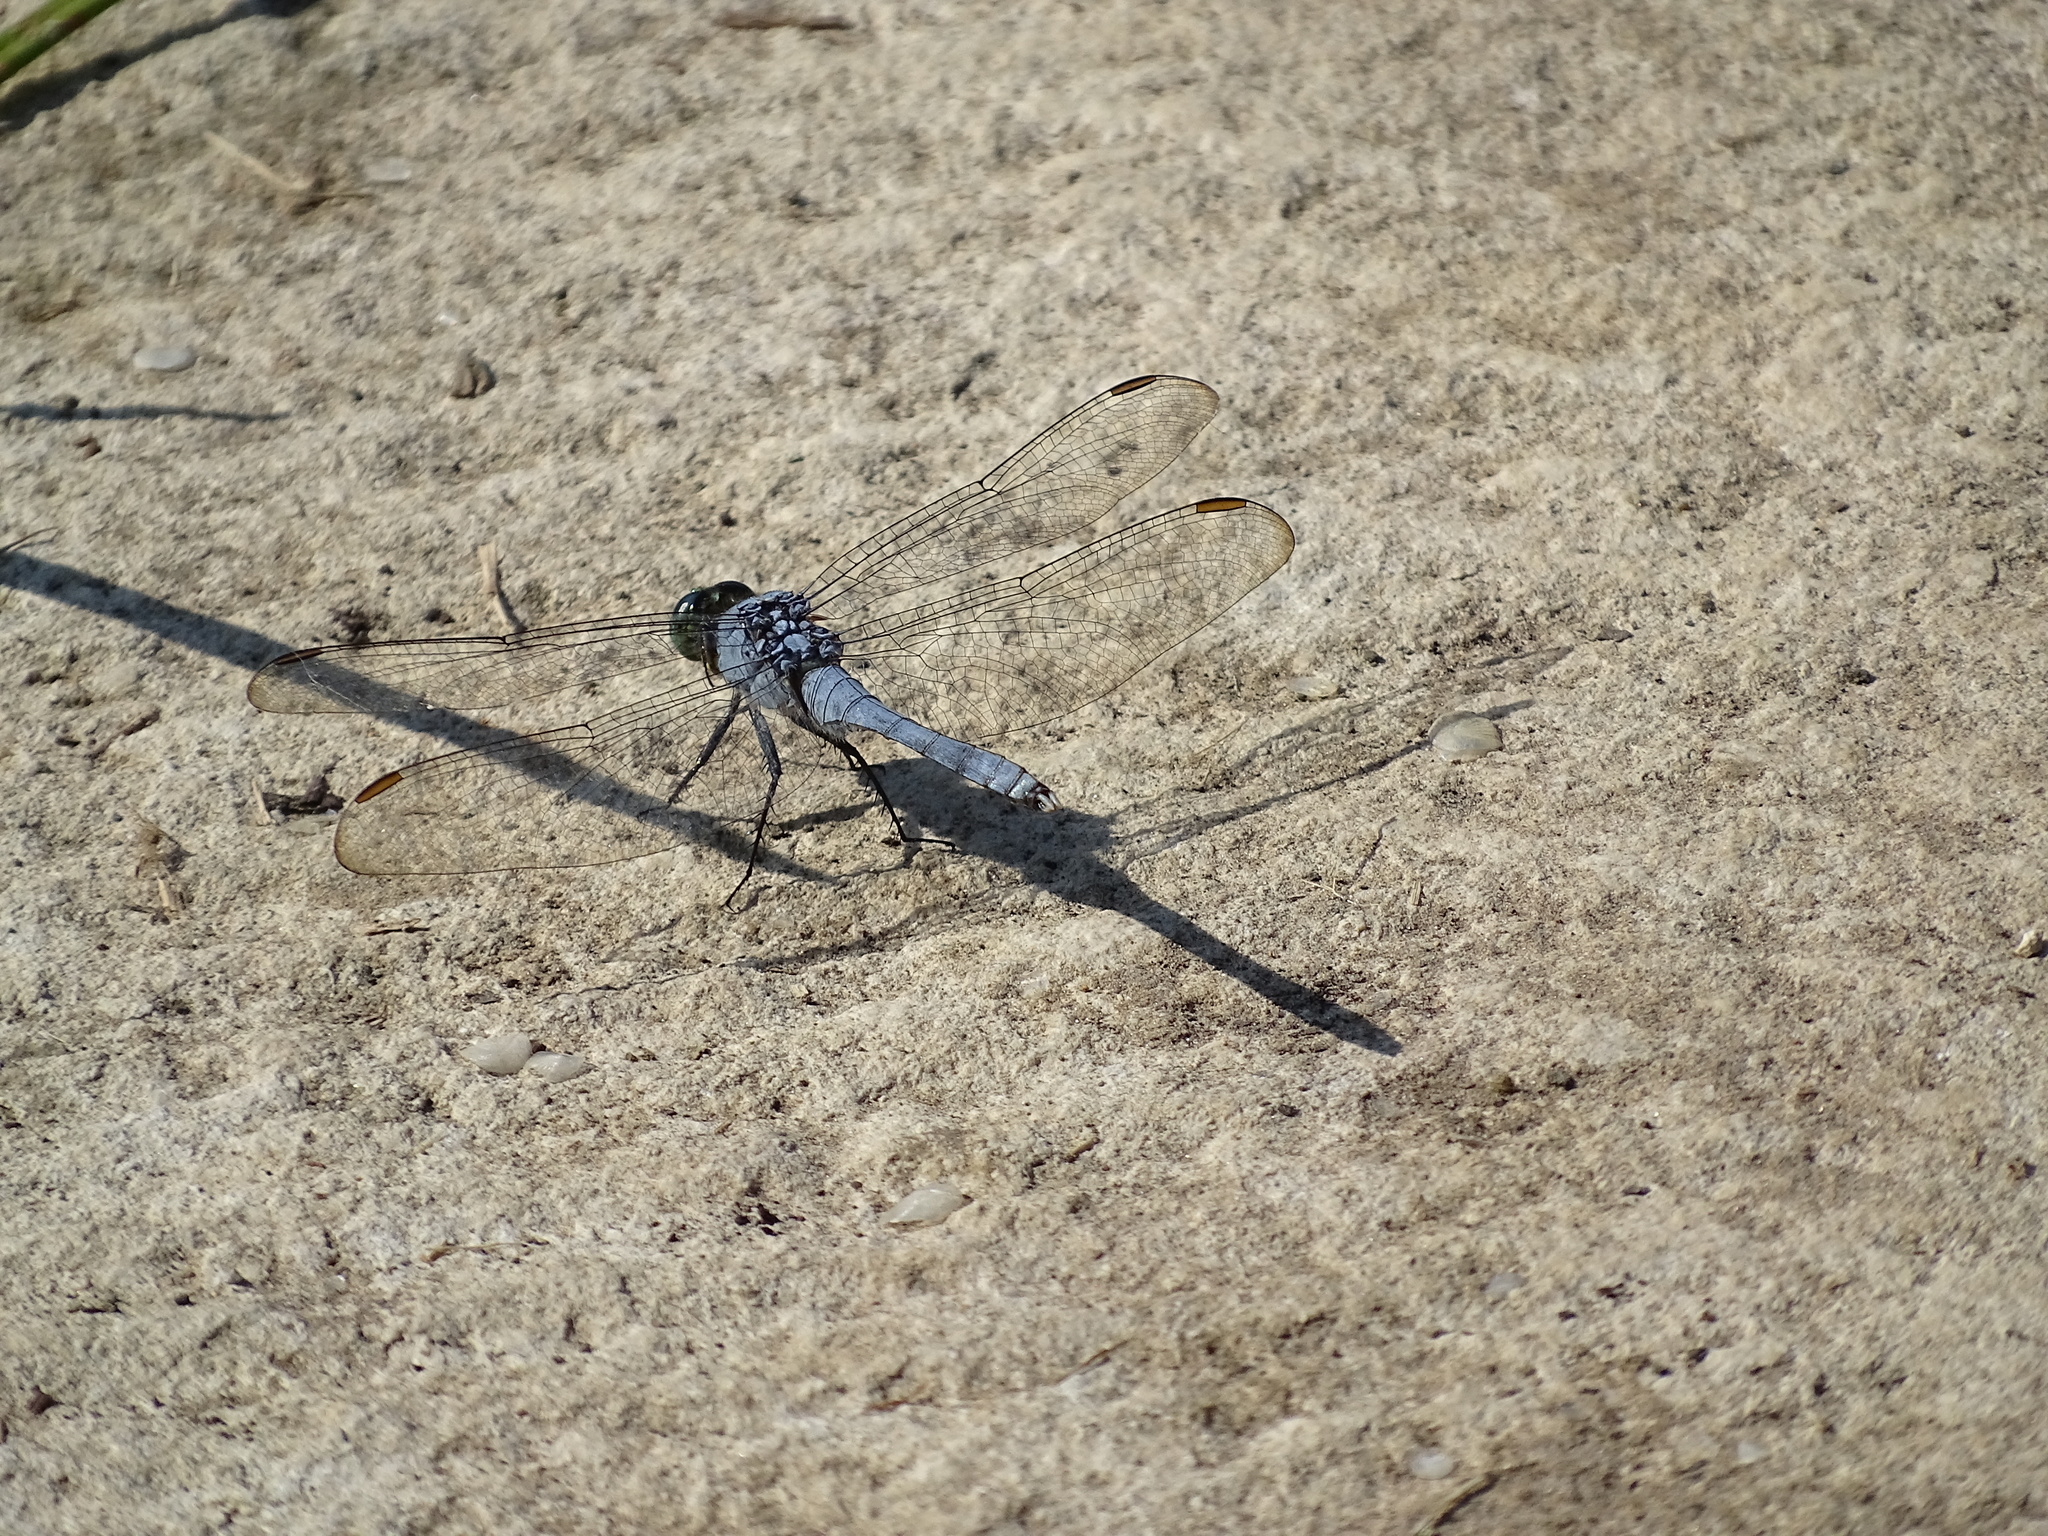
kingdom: Animalia
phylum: Arthropoda
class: Insecta
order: Odonata
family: Libellulidae
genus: Erythemis
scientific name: Erythemis simplicicollis
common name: Eastern pondhawk
